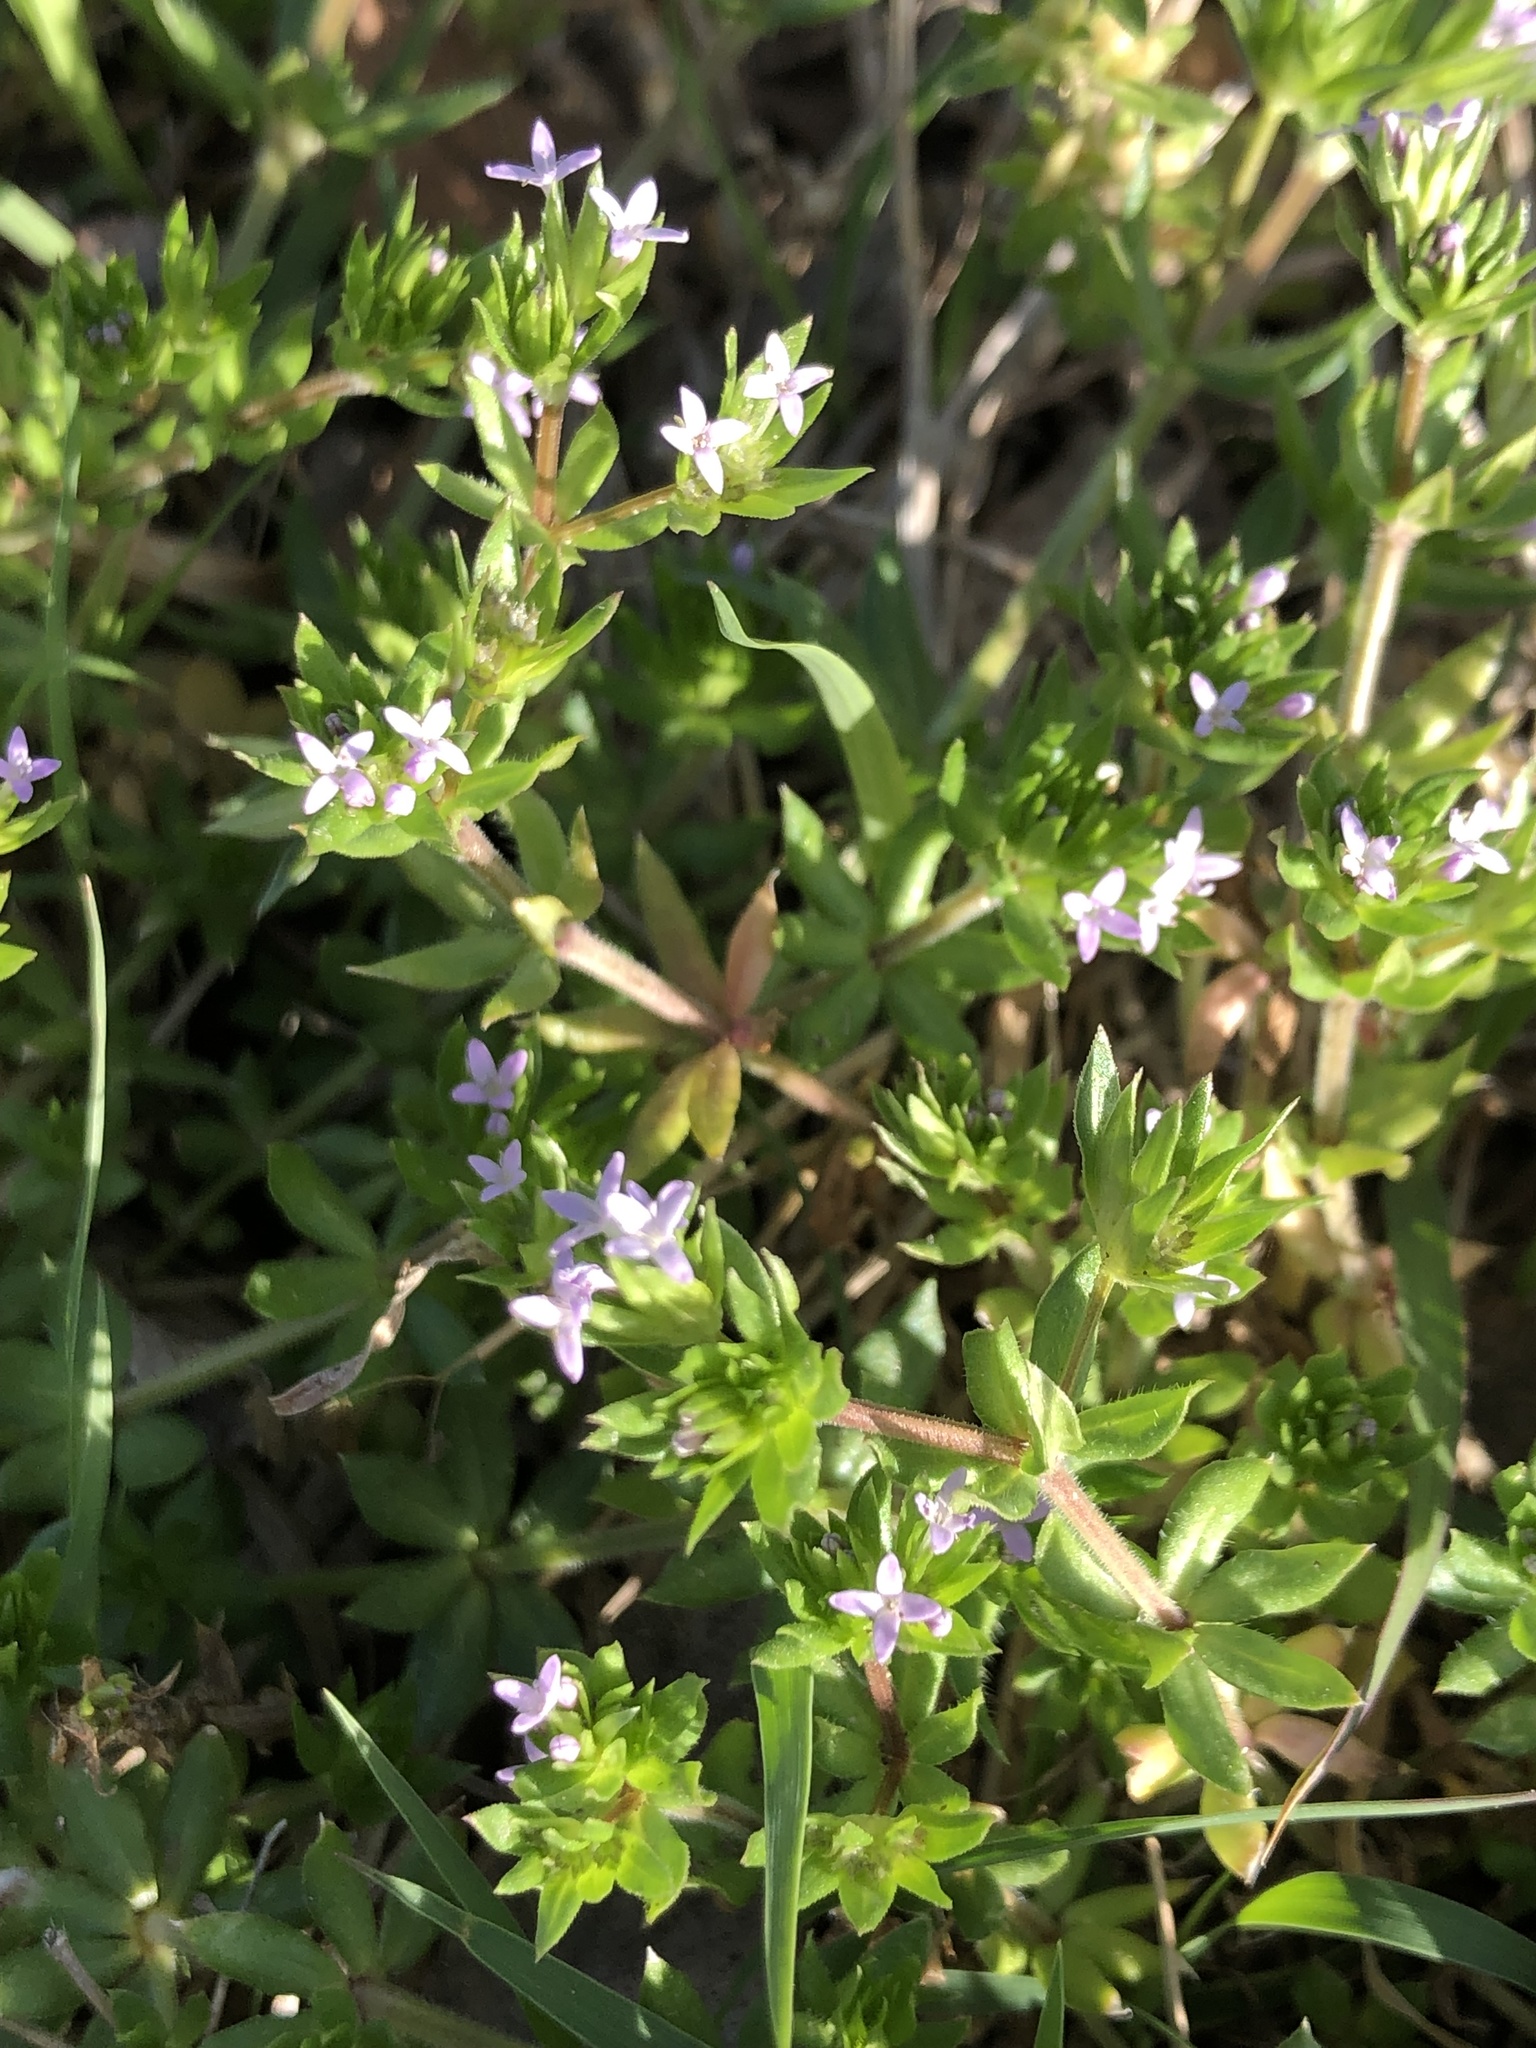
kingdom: Plantae
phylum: Tracheophyta
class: Magnoliopsida
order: Gentianales
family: Rubiaceae
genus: Sherardia
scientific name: Sherardia arvensis
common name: Field madder
